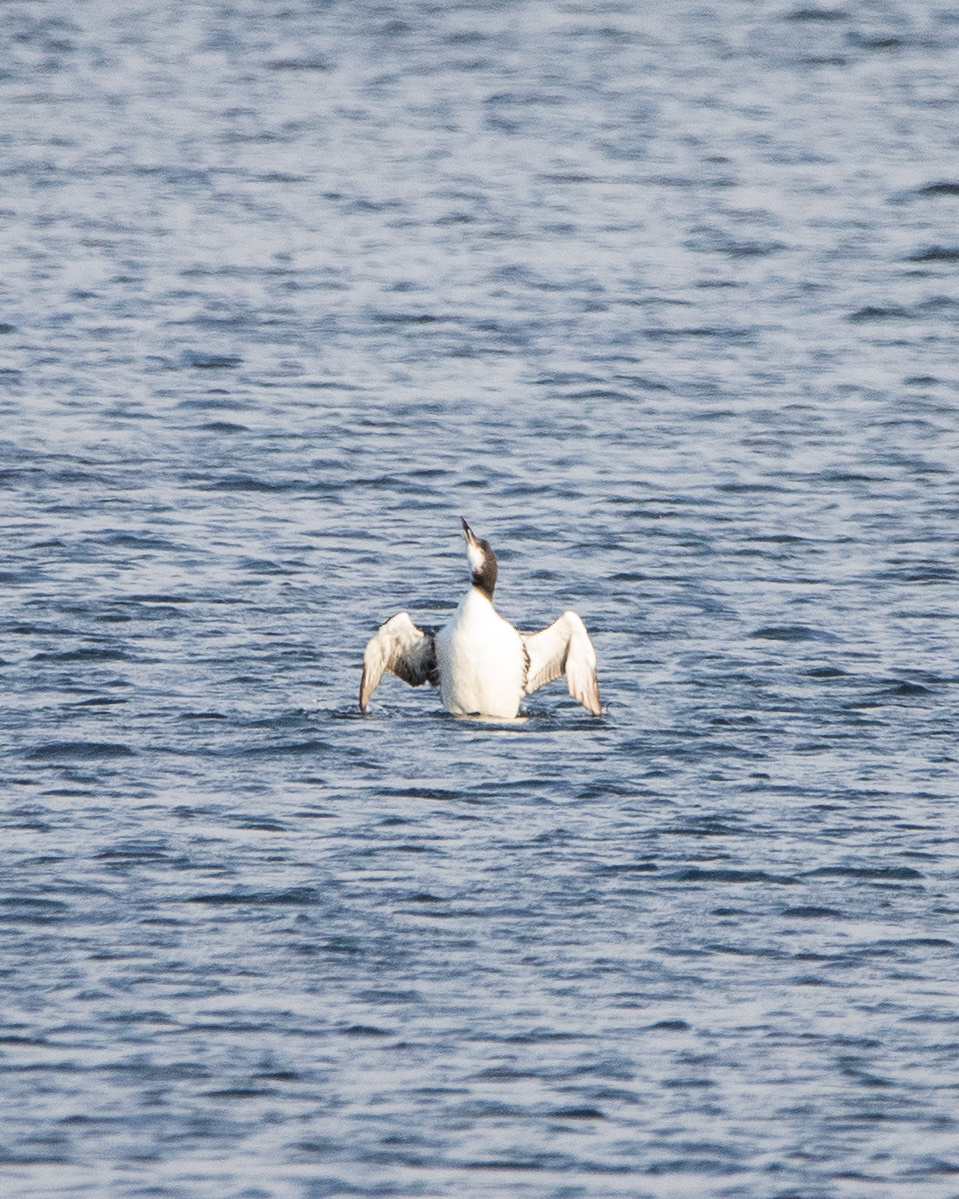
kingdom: Animalia
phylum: Chordata
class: Aves
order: Gaviiformes
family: Gaviidae
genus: Gavia
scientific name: Gavia immer
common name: Common loon
